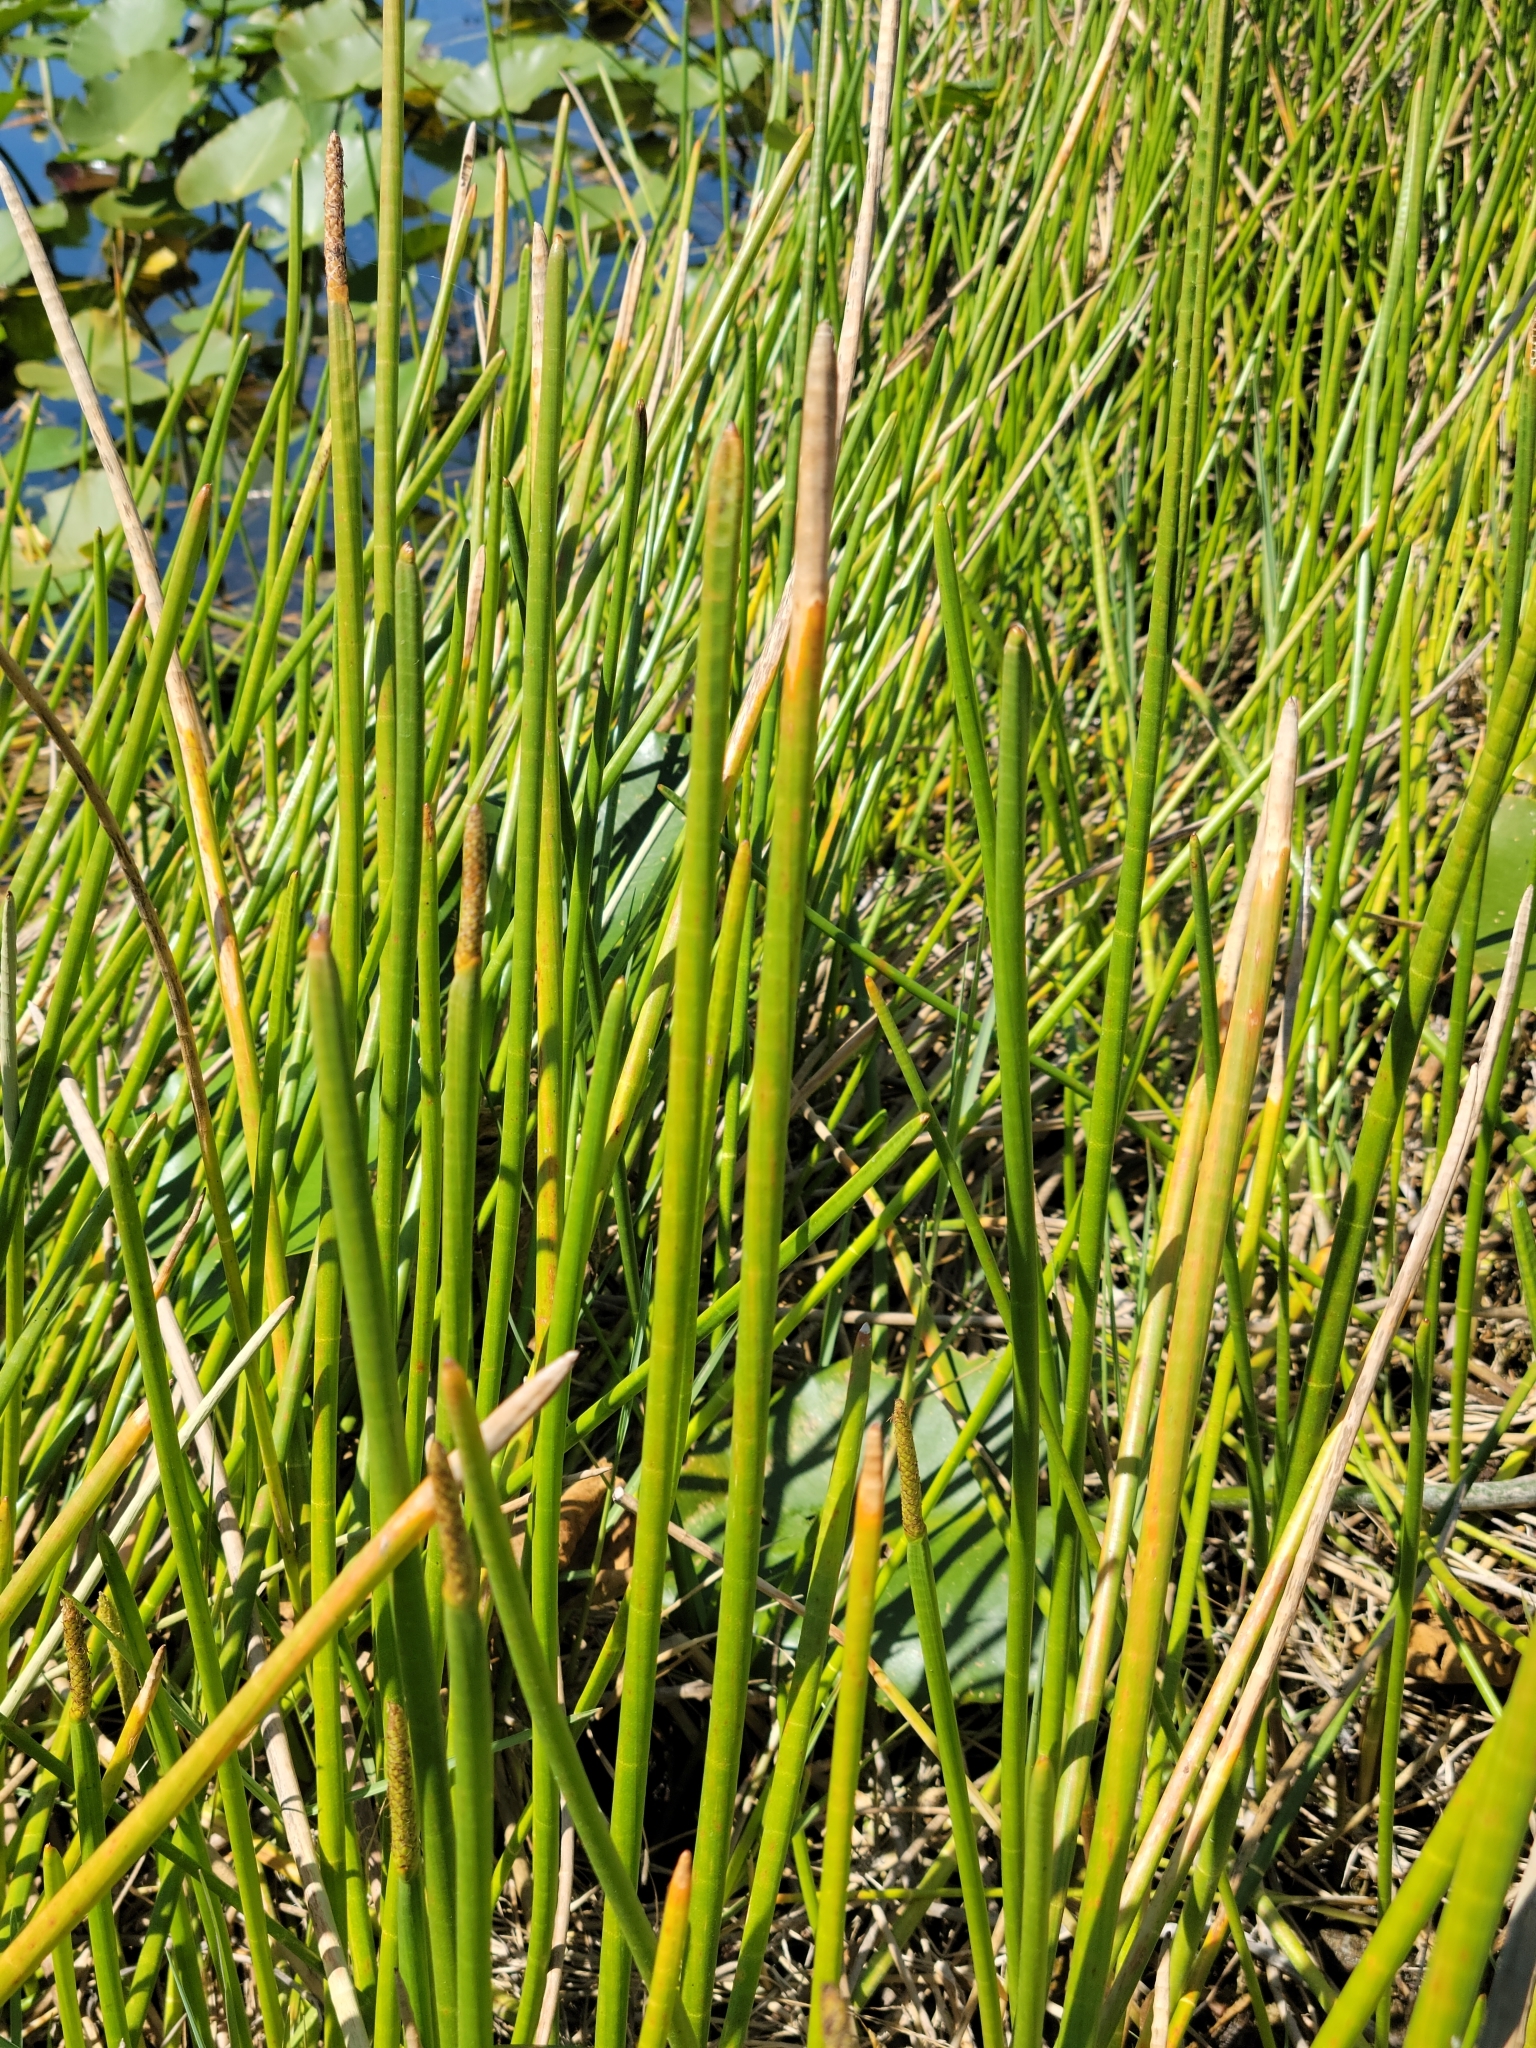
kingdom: Plantae
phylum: Tracheophyta
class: Liliopsida
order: Poales
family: Cyperaceae
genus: Eleocharis
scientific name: Eleocharis interstincta
